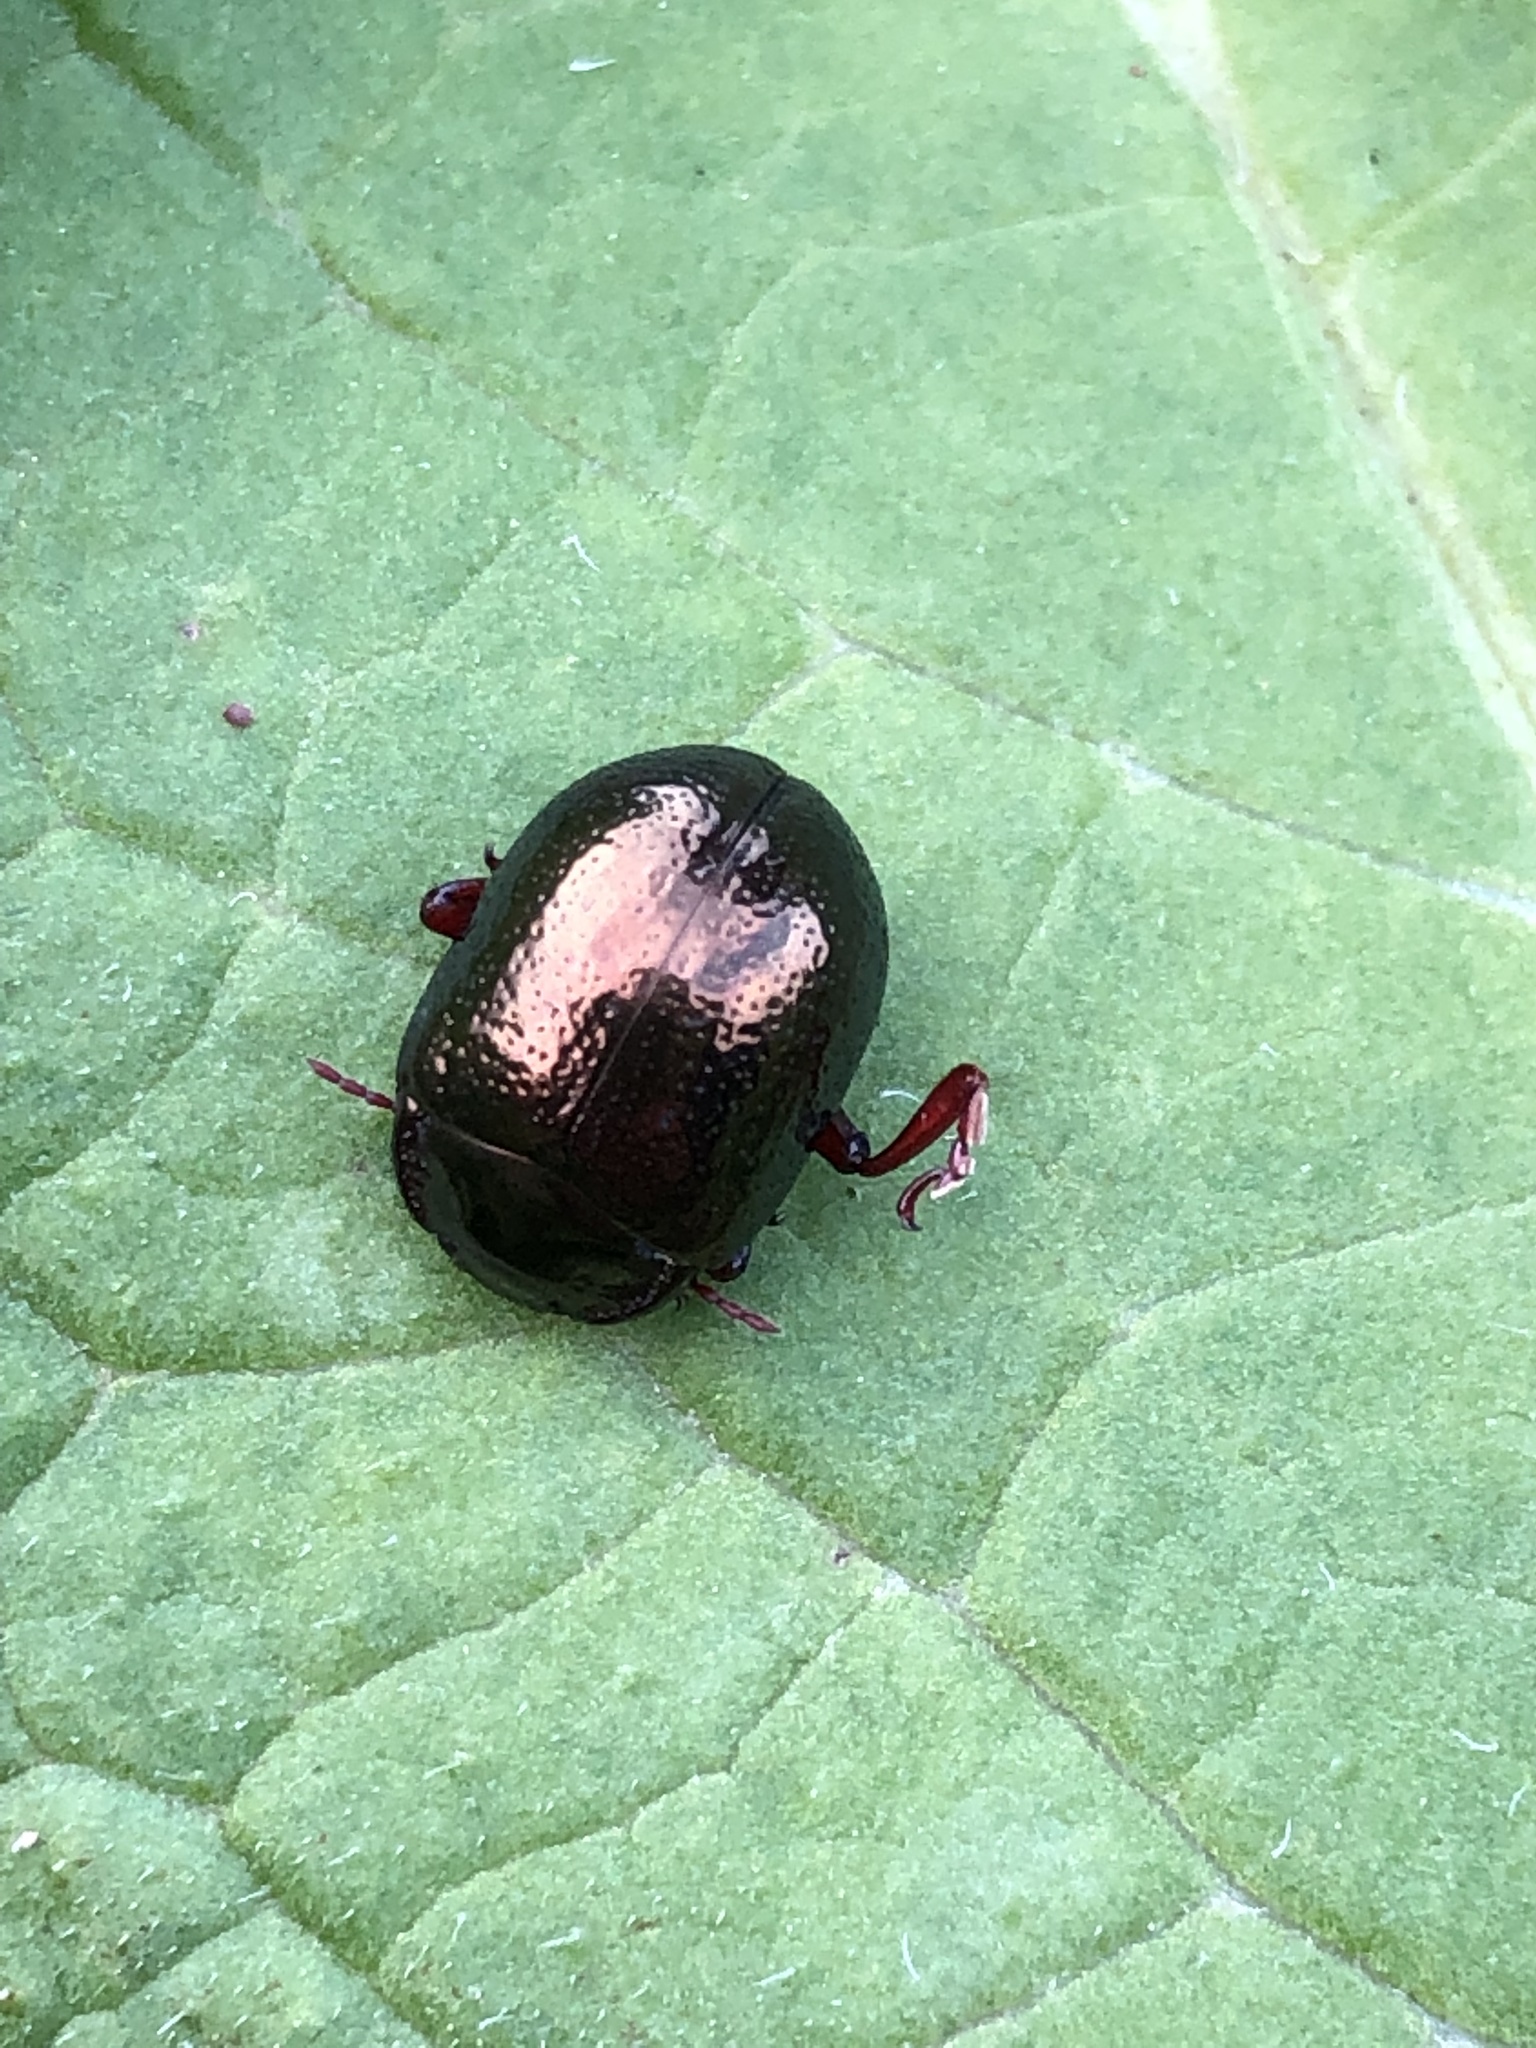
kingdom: Animalia
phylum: Arthropoda
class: Insecta
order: Coleoptera
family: Chrysomelidae
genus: Chrysolina
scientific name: Chrysolina bankii
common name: Leaf beetle
